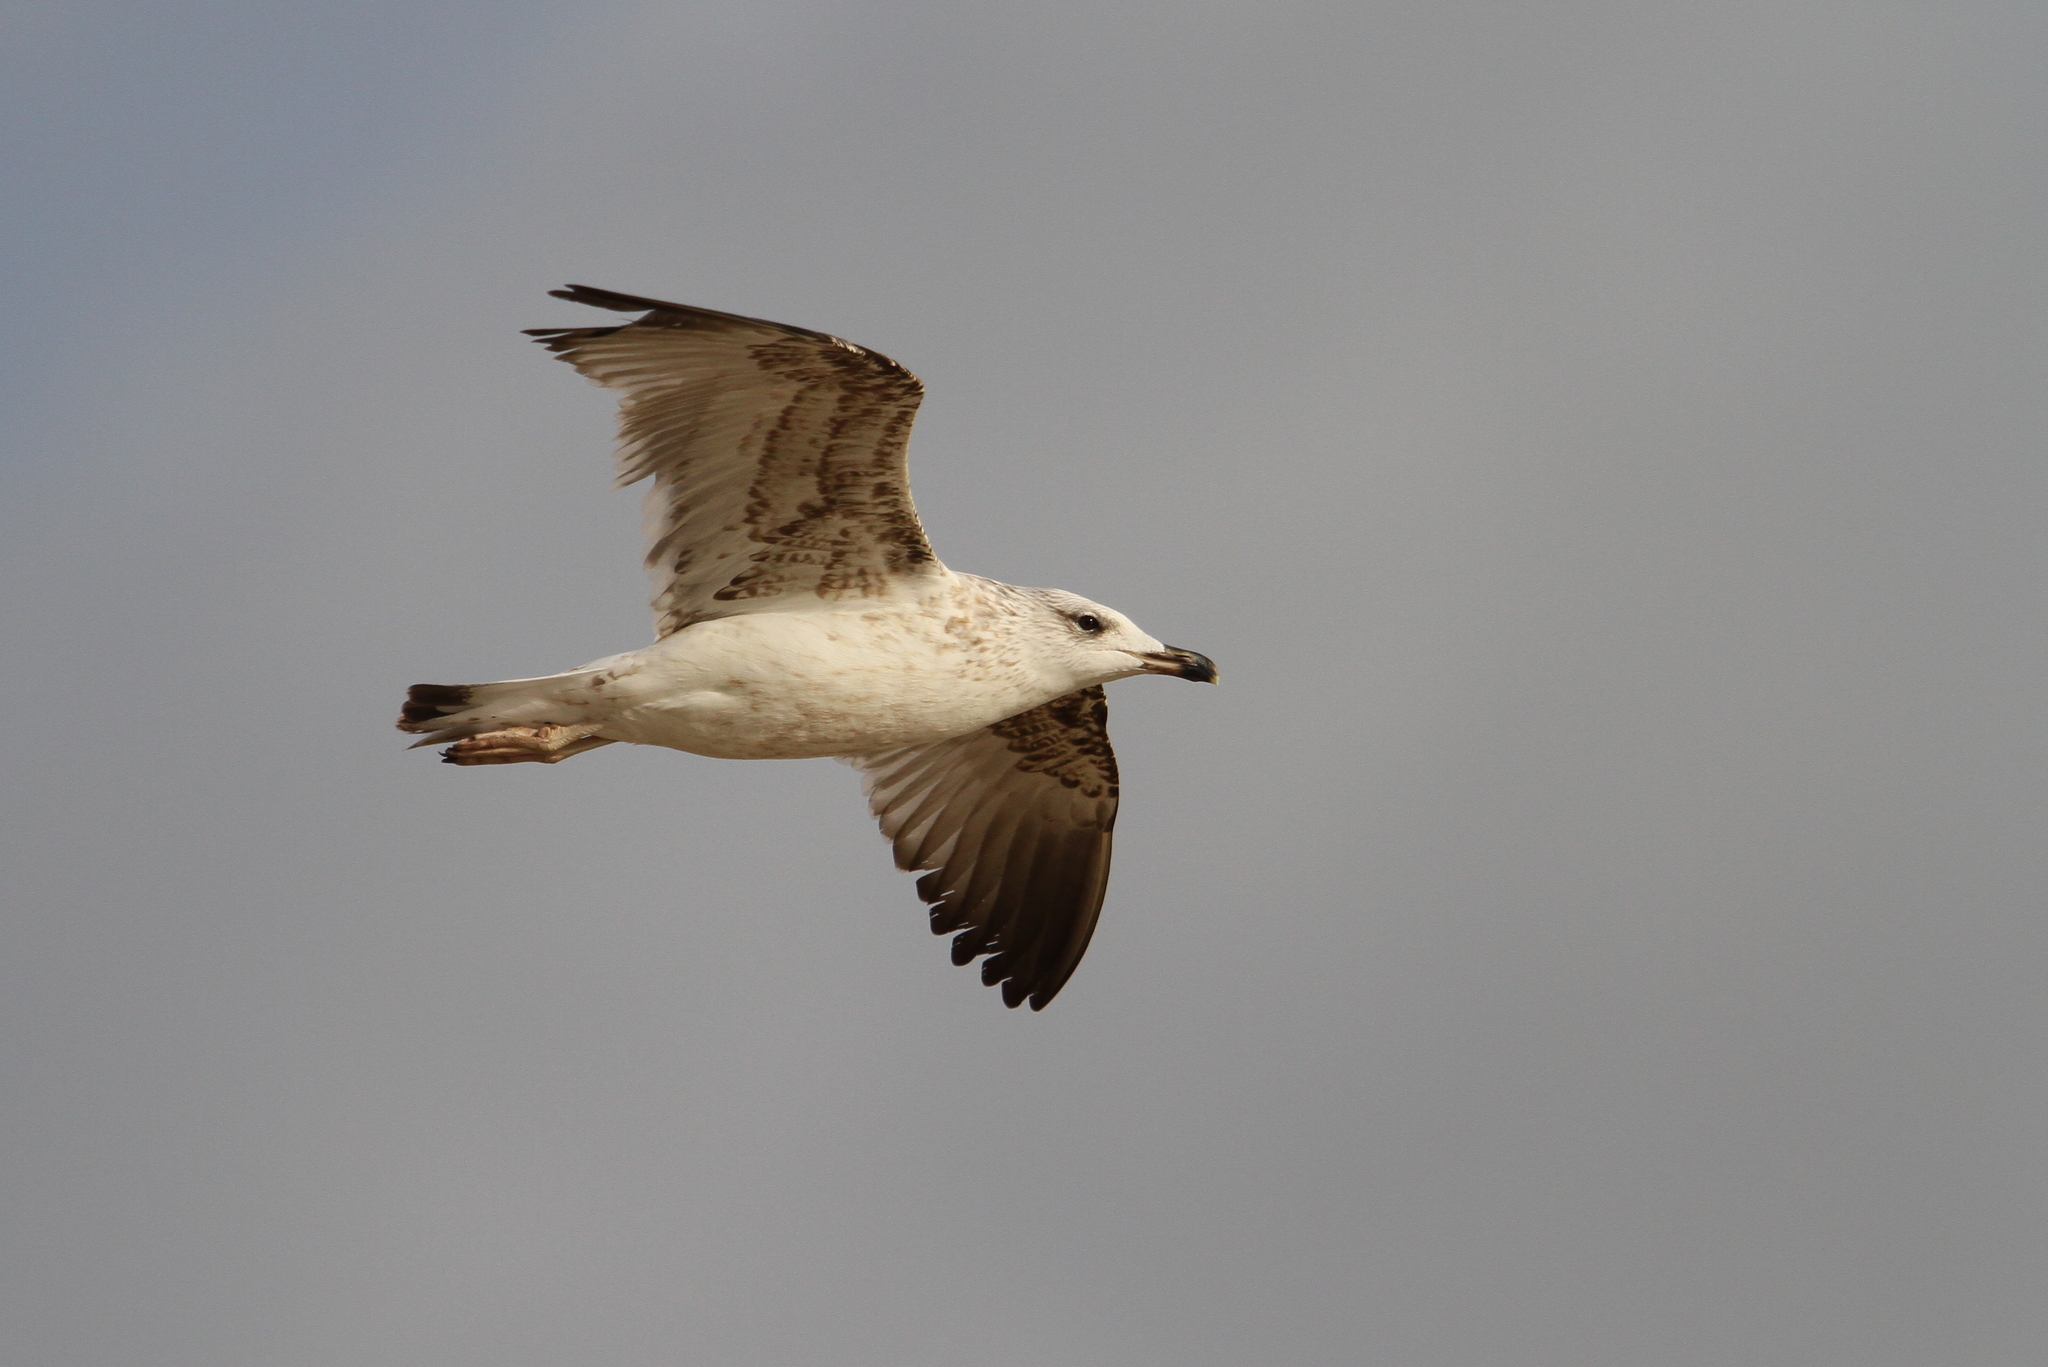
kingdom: Animalia
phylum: Chordata
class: Aves
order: Charadriiformes
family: Laridae
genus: Larus
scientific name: Larus armenicus
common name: Armenian gull
